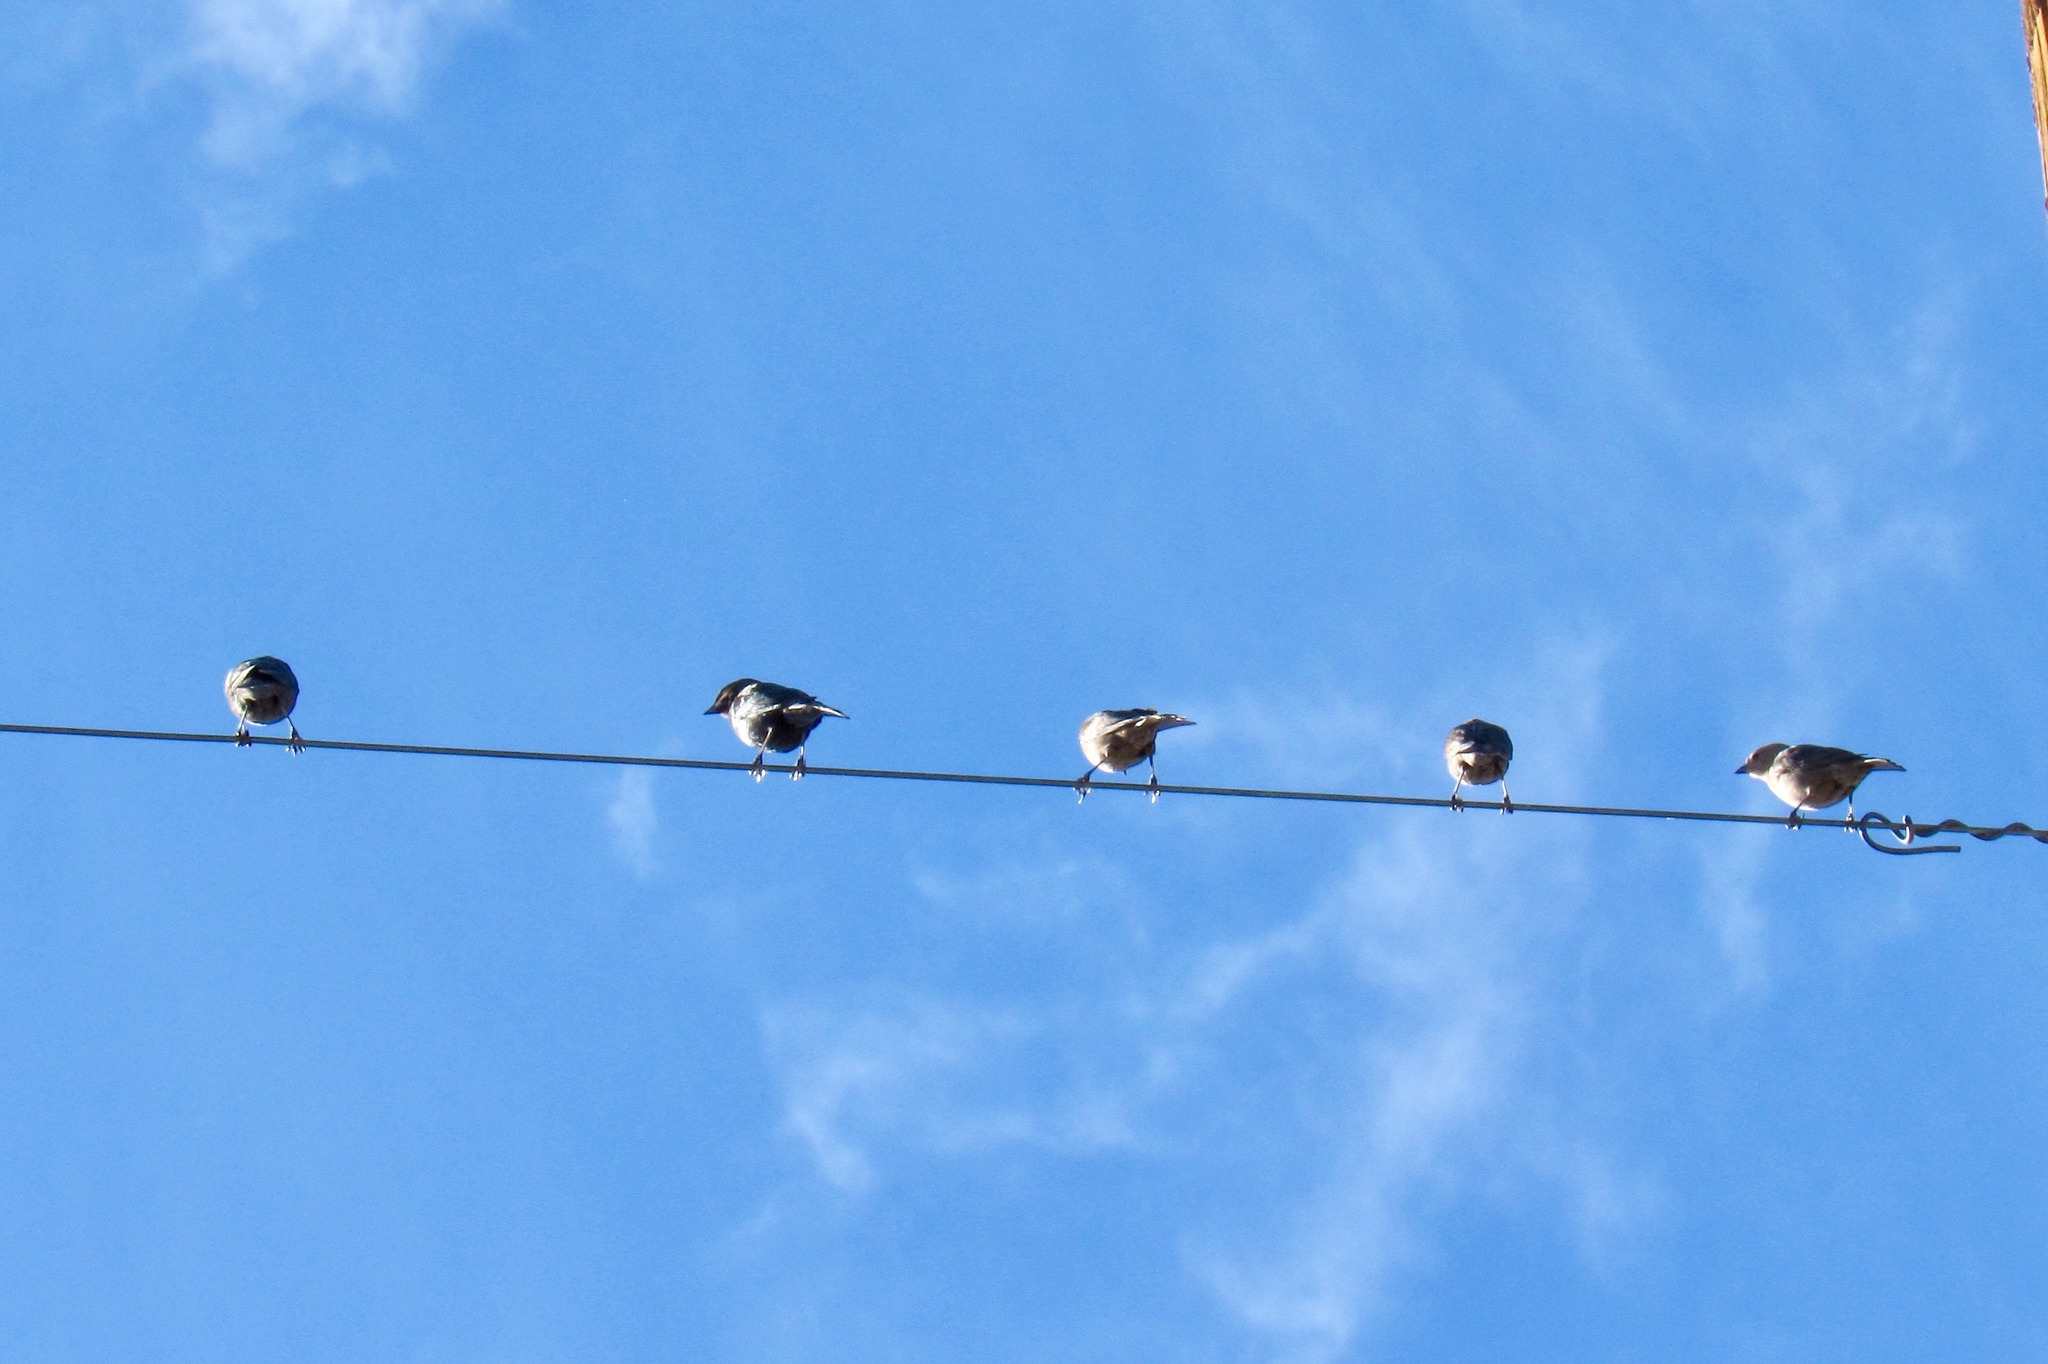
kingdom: Animalia
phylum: Chordata
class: Aves
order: Passeriformes
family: Icteridae
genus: Molothrus
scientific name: Molothrus ater
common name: Brown-headed cowbird
